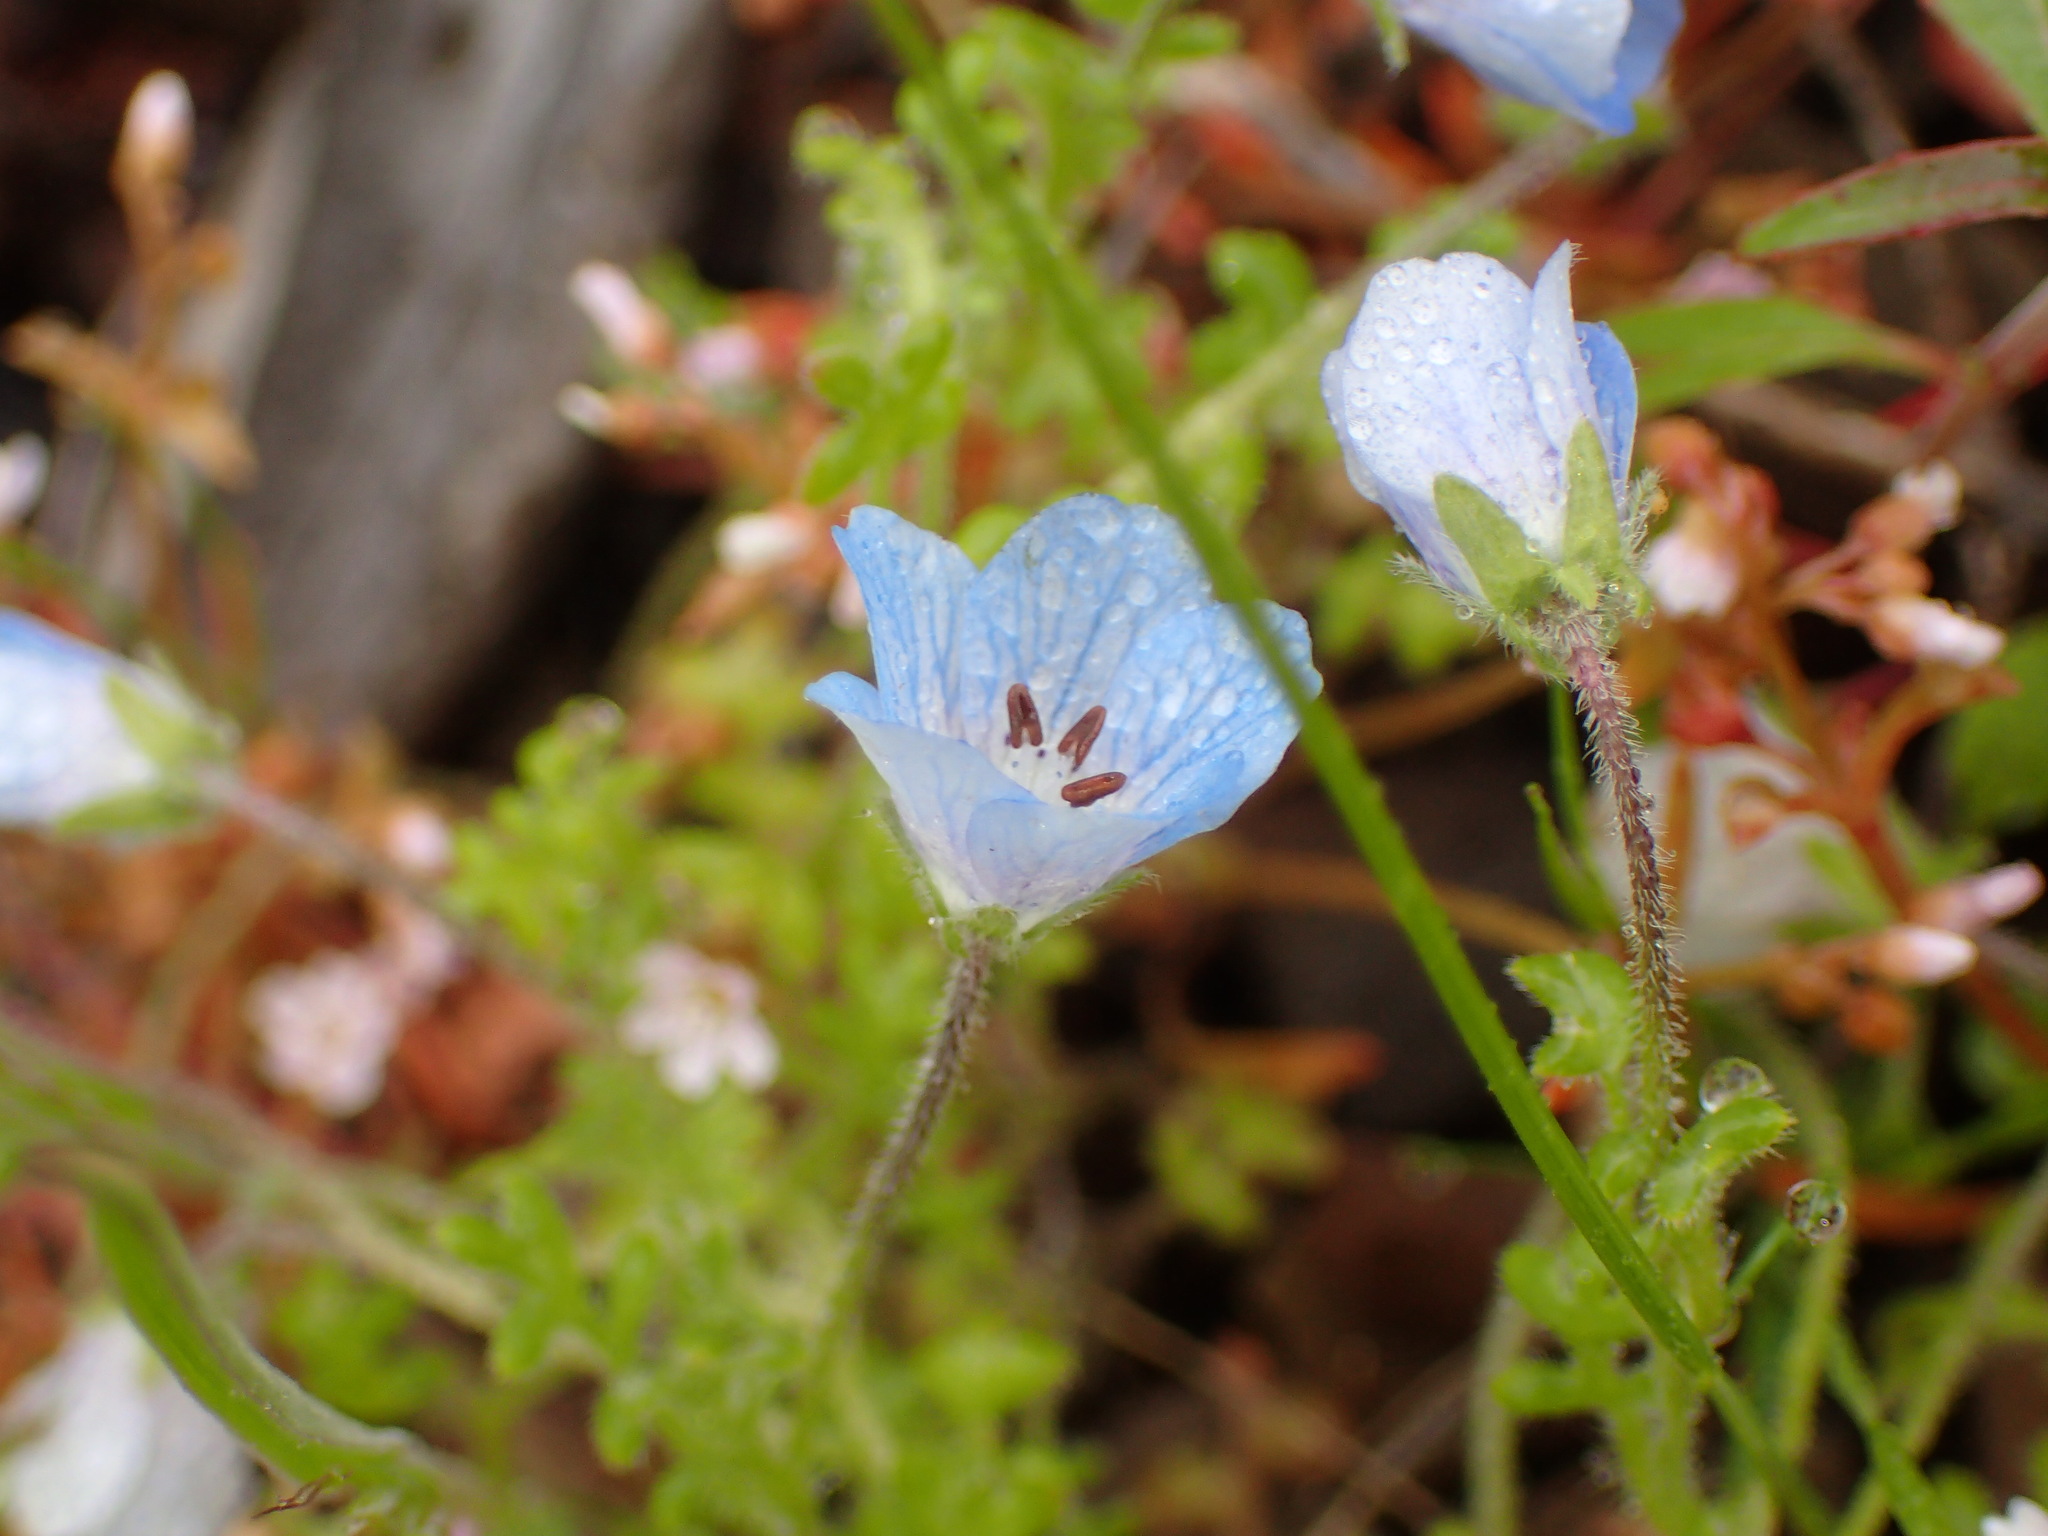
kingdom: Plantae
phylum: Tracheophyta
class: Magnoliopsida
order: Boraginales
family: Hydrophyllaceae
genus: Nemophila
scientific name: Nemophila menziesii
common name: Baby's-blue-eyes
